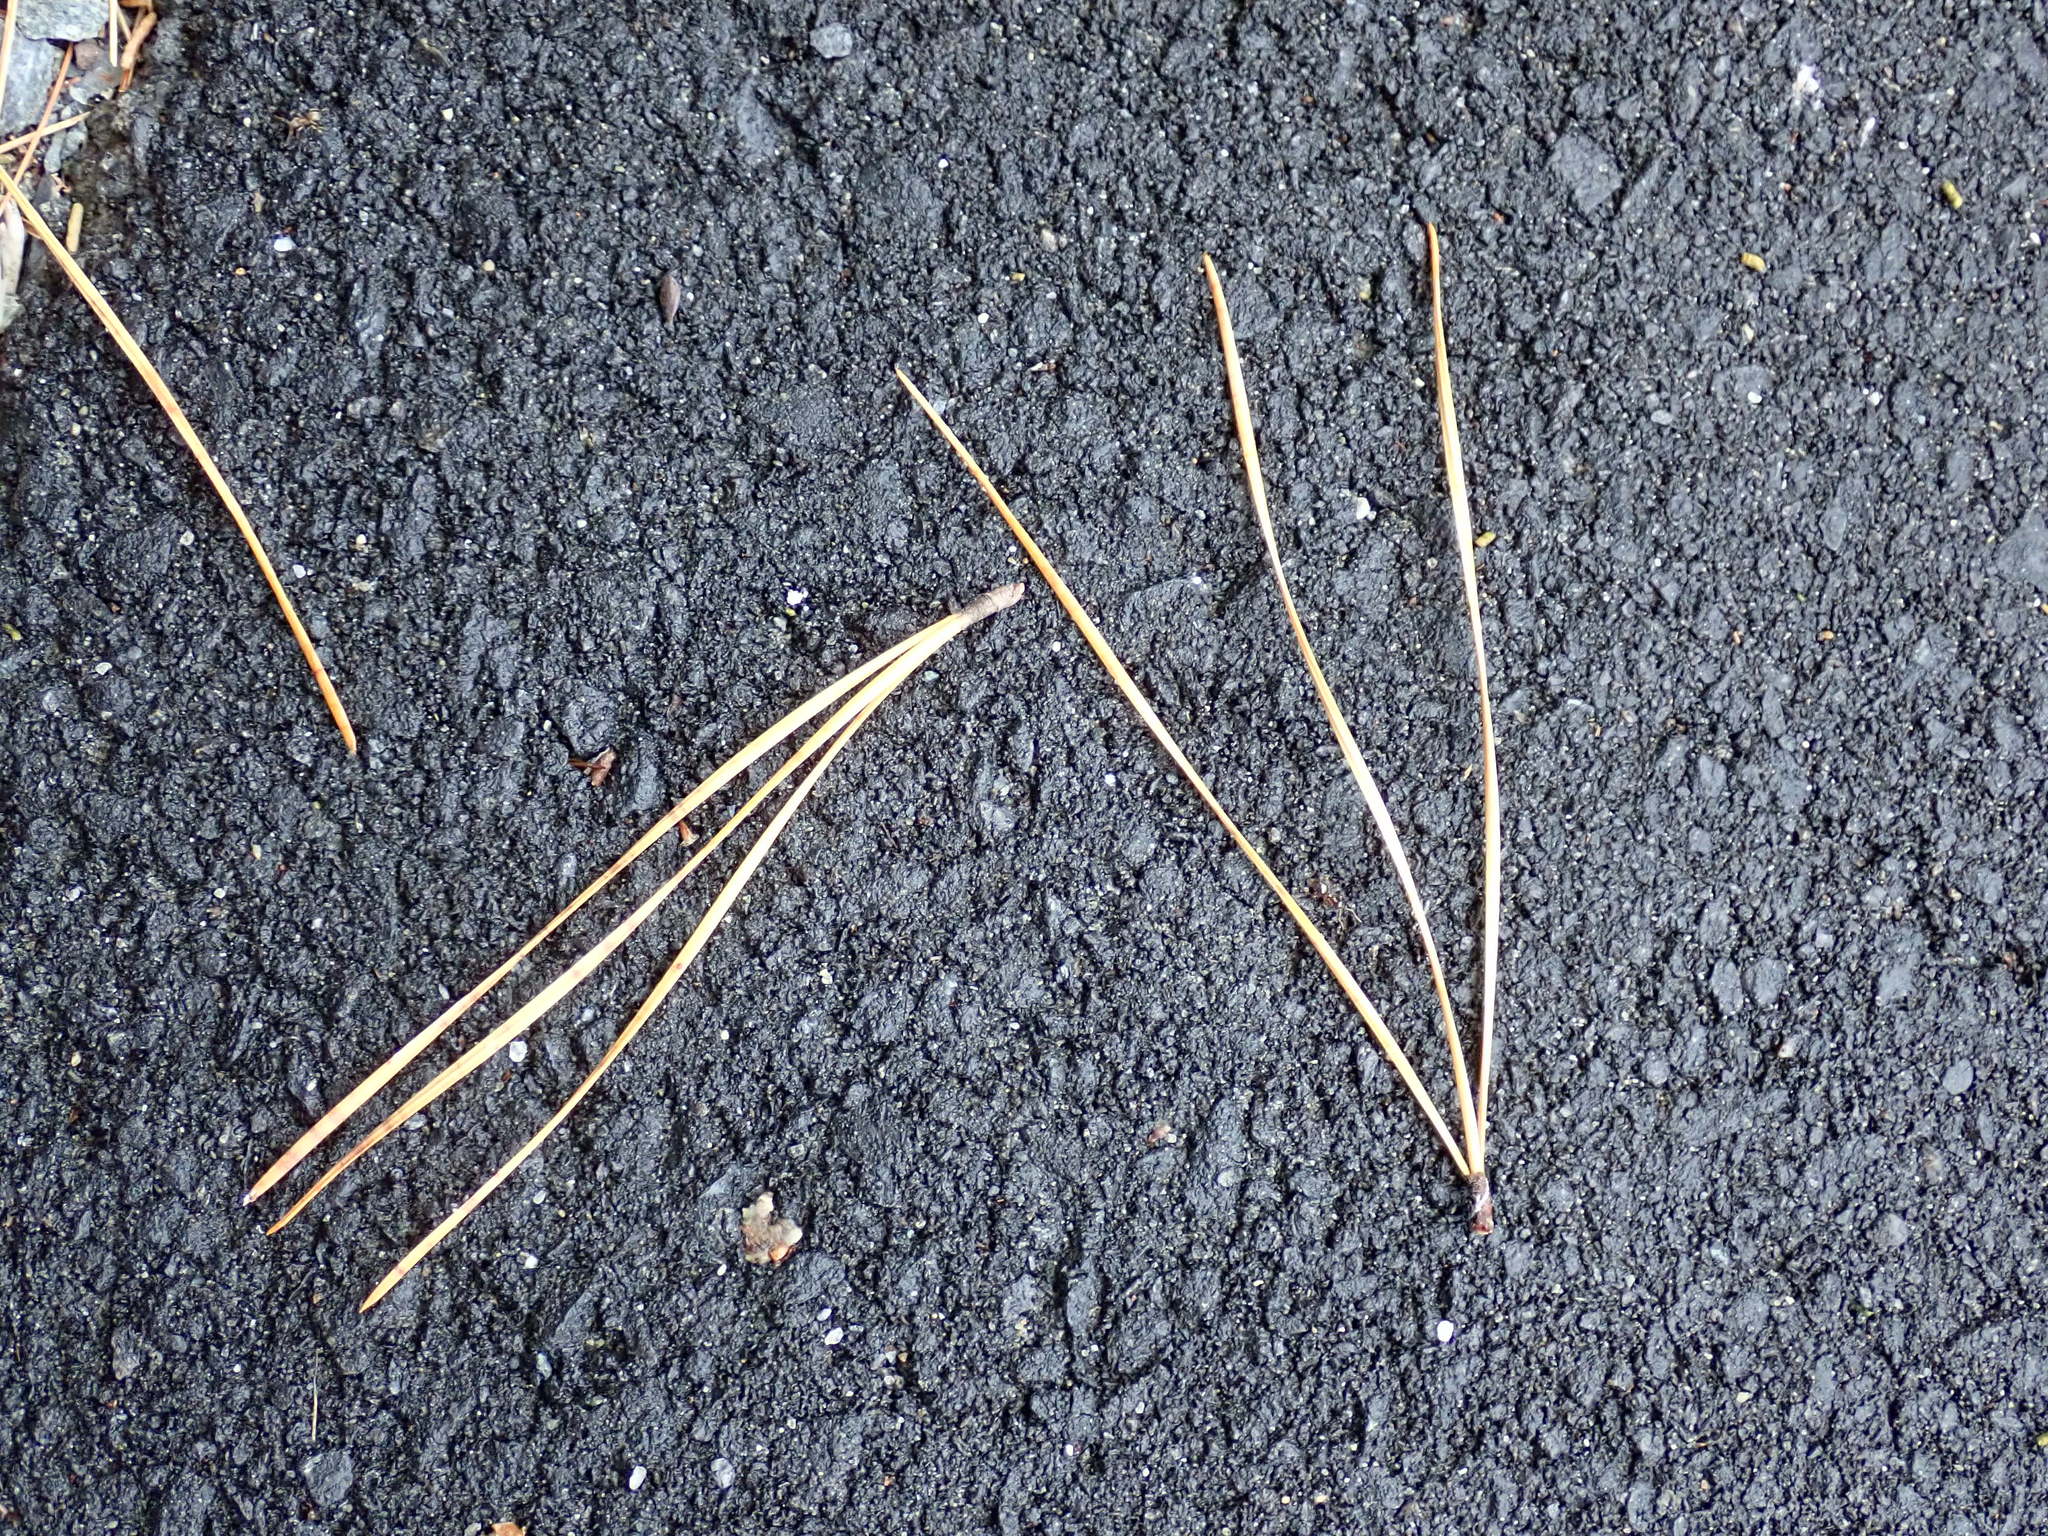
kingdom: Plantae
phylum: Tracheophyta
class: Pinopsida
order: Pinales
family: Pinaceae
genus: Pinus
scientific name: Pinus rigida
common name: Pitch pine
